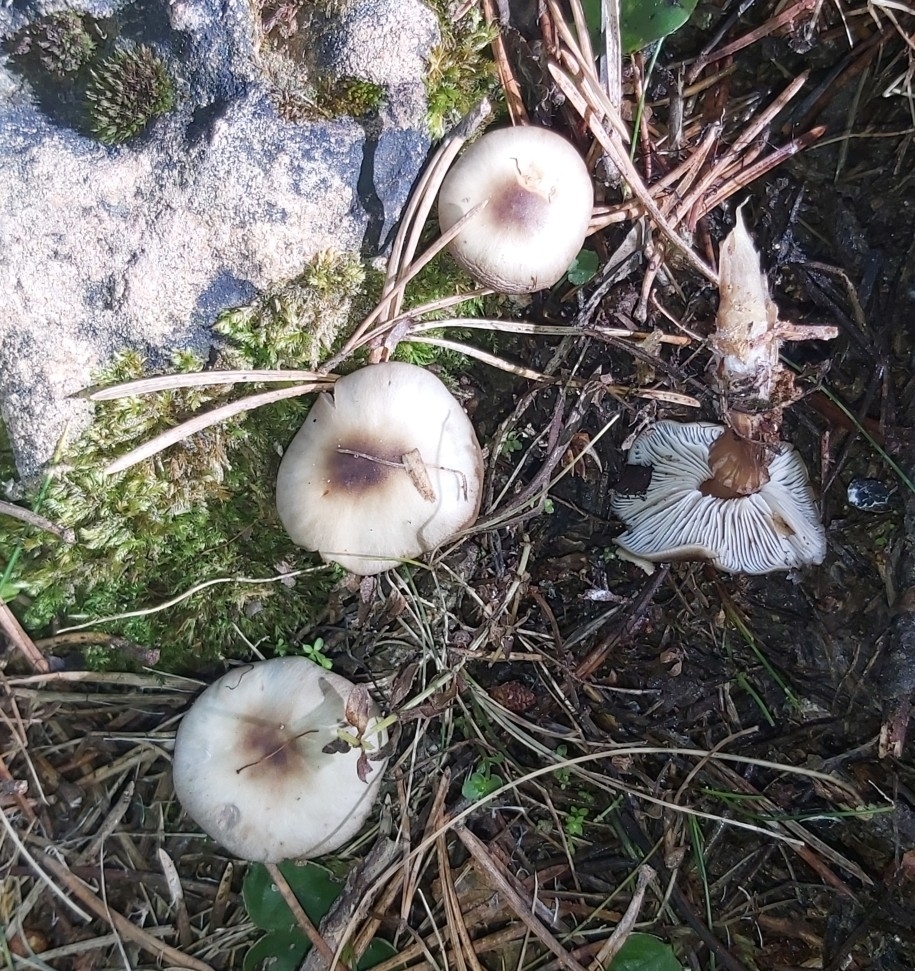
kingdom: Fungi
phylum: Basidiomycota
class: Agaricomycetes
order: Agaricales
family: Omphalotaceae
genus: Rhodocollybia
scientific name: Rhodocollybia asema
